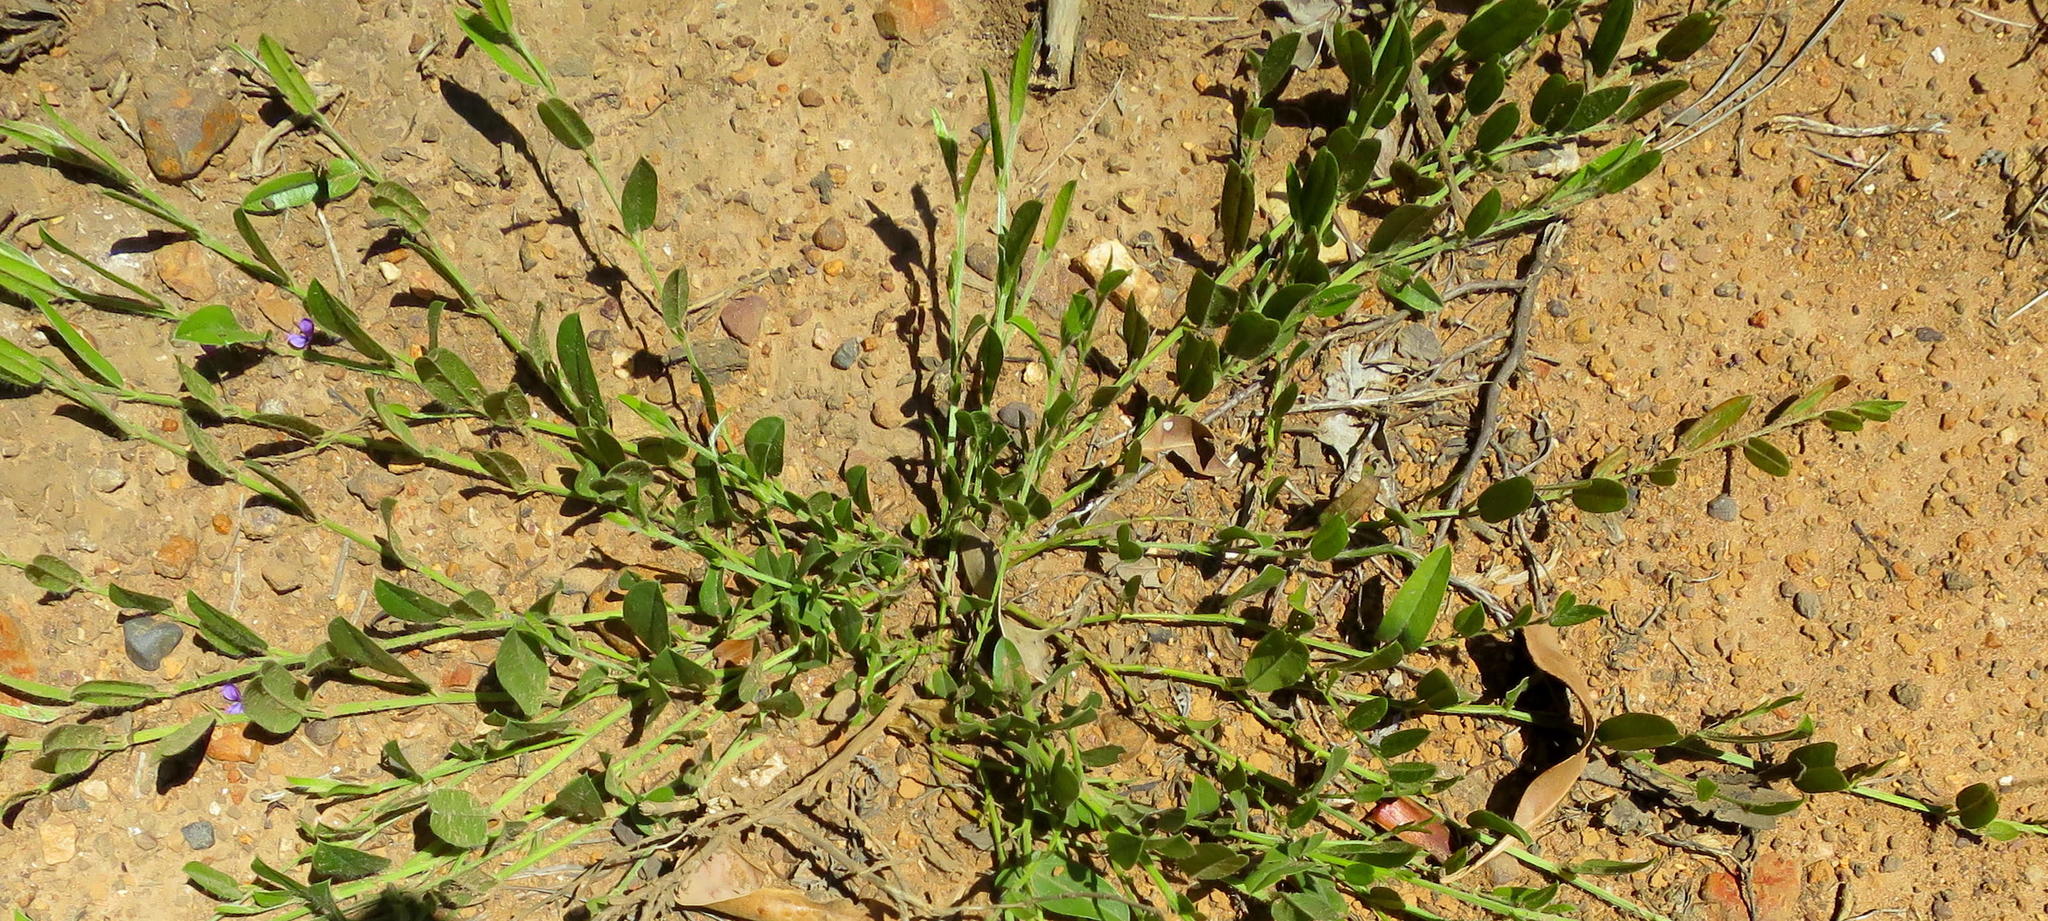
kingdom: Plantae
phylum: Tracheophyta
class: Magnoliopsida
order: Fabales
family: Fabaceae
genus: Psoralea
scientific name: Psoralea asarina
